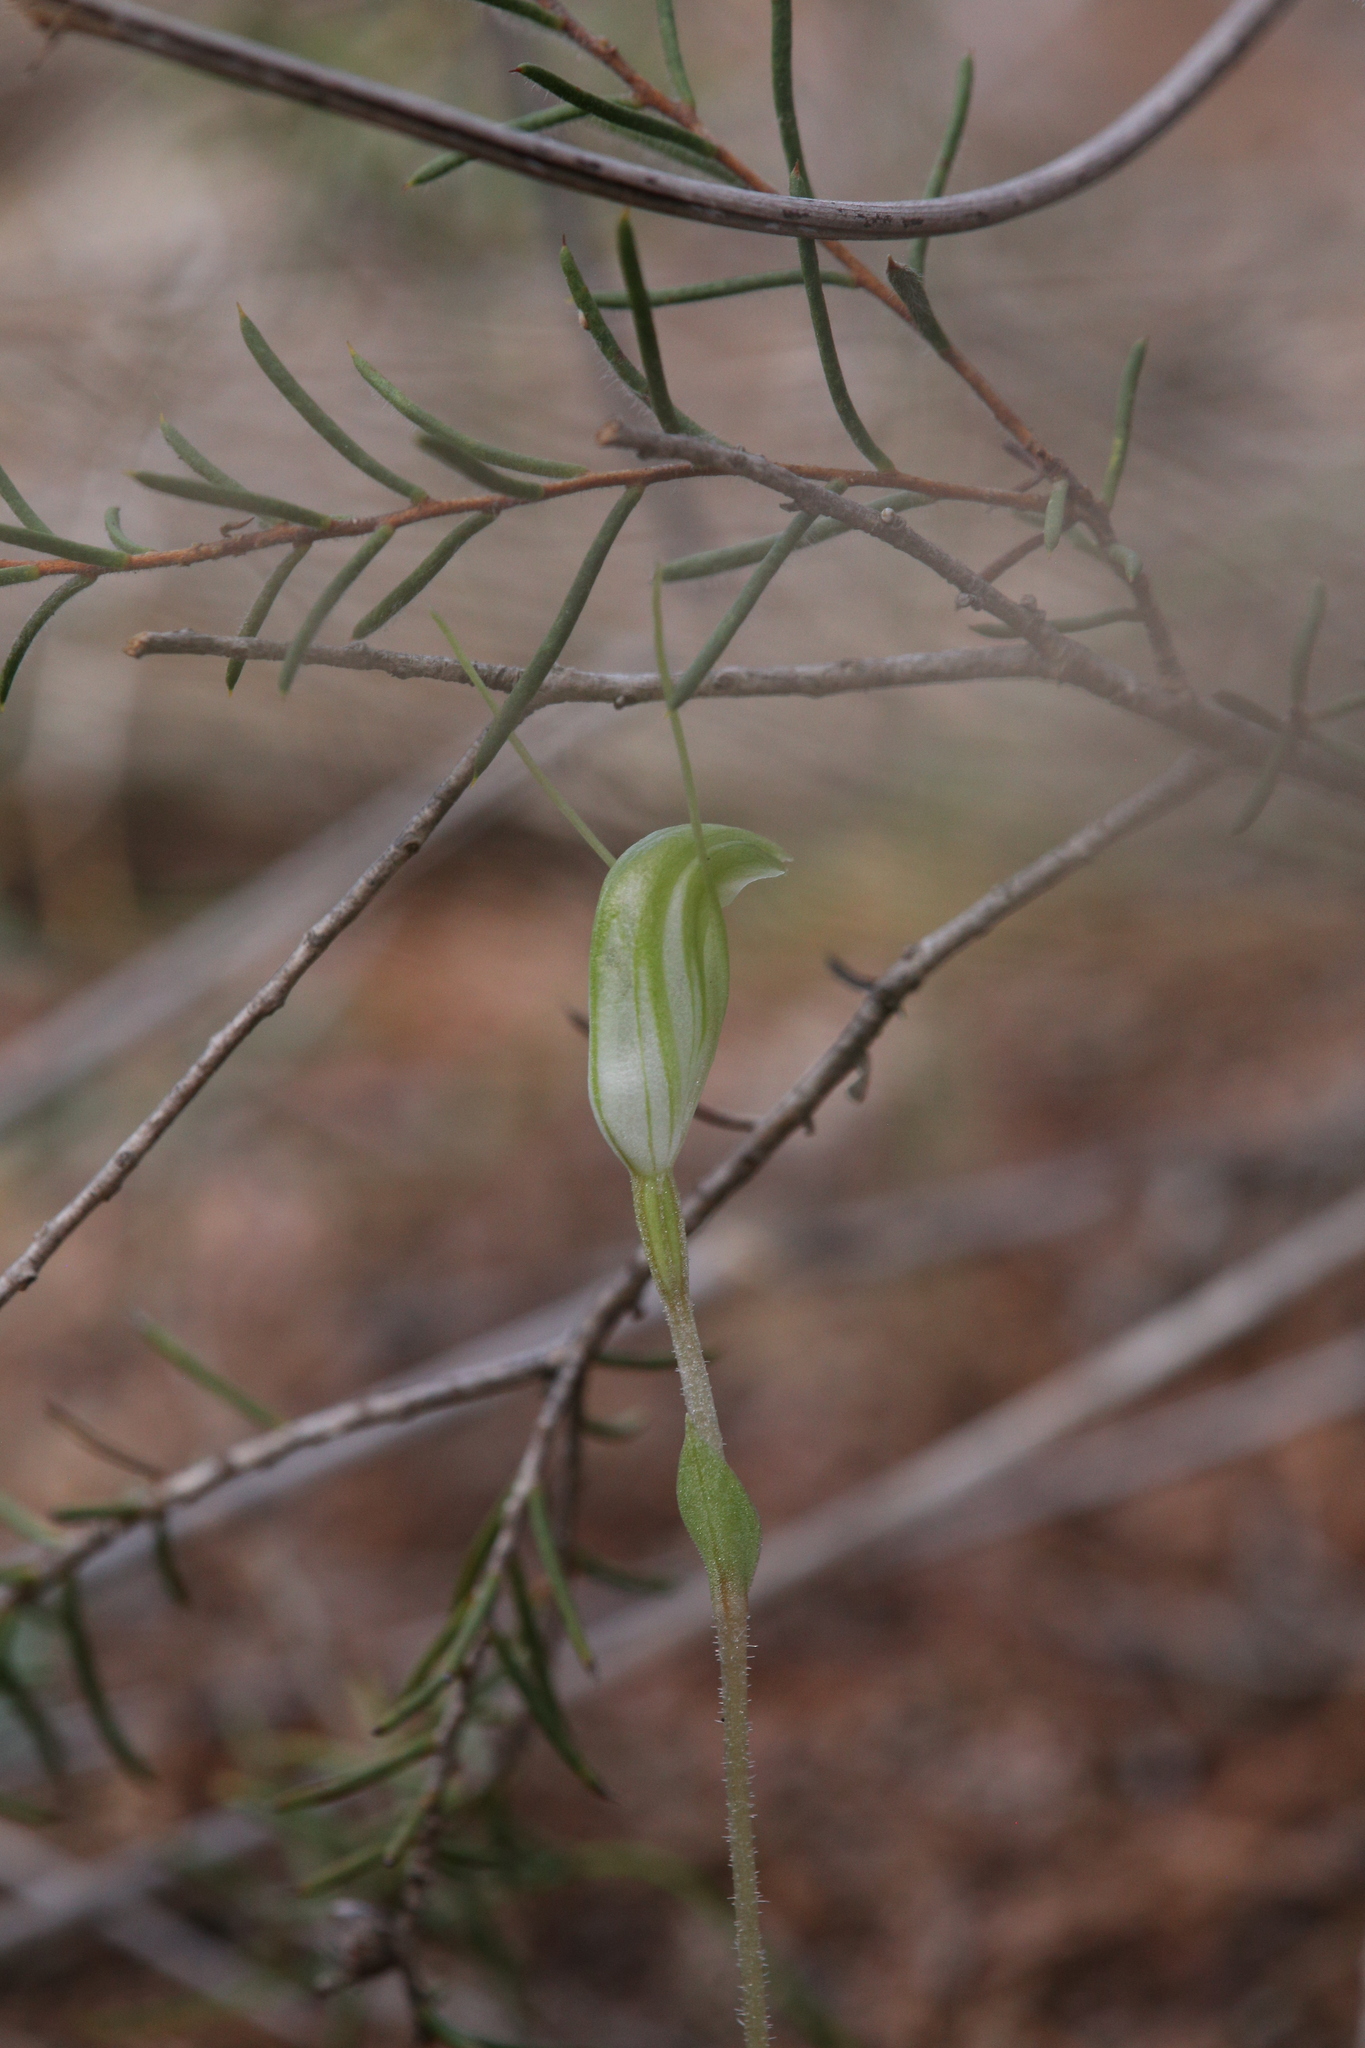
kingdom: Plantae
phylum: Tracheophyta
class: Liliopsida
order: Asparagales
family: Orchidaceae
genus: Pterostylis
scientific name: Pterostylis setulosa
